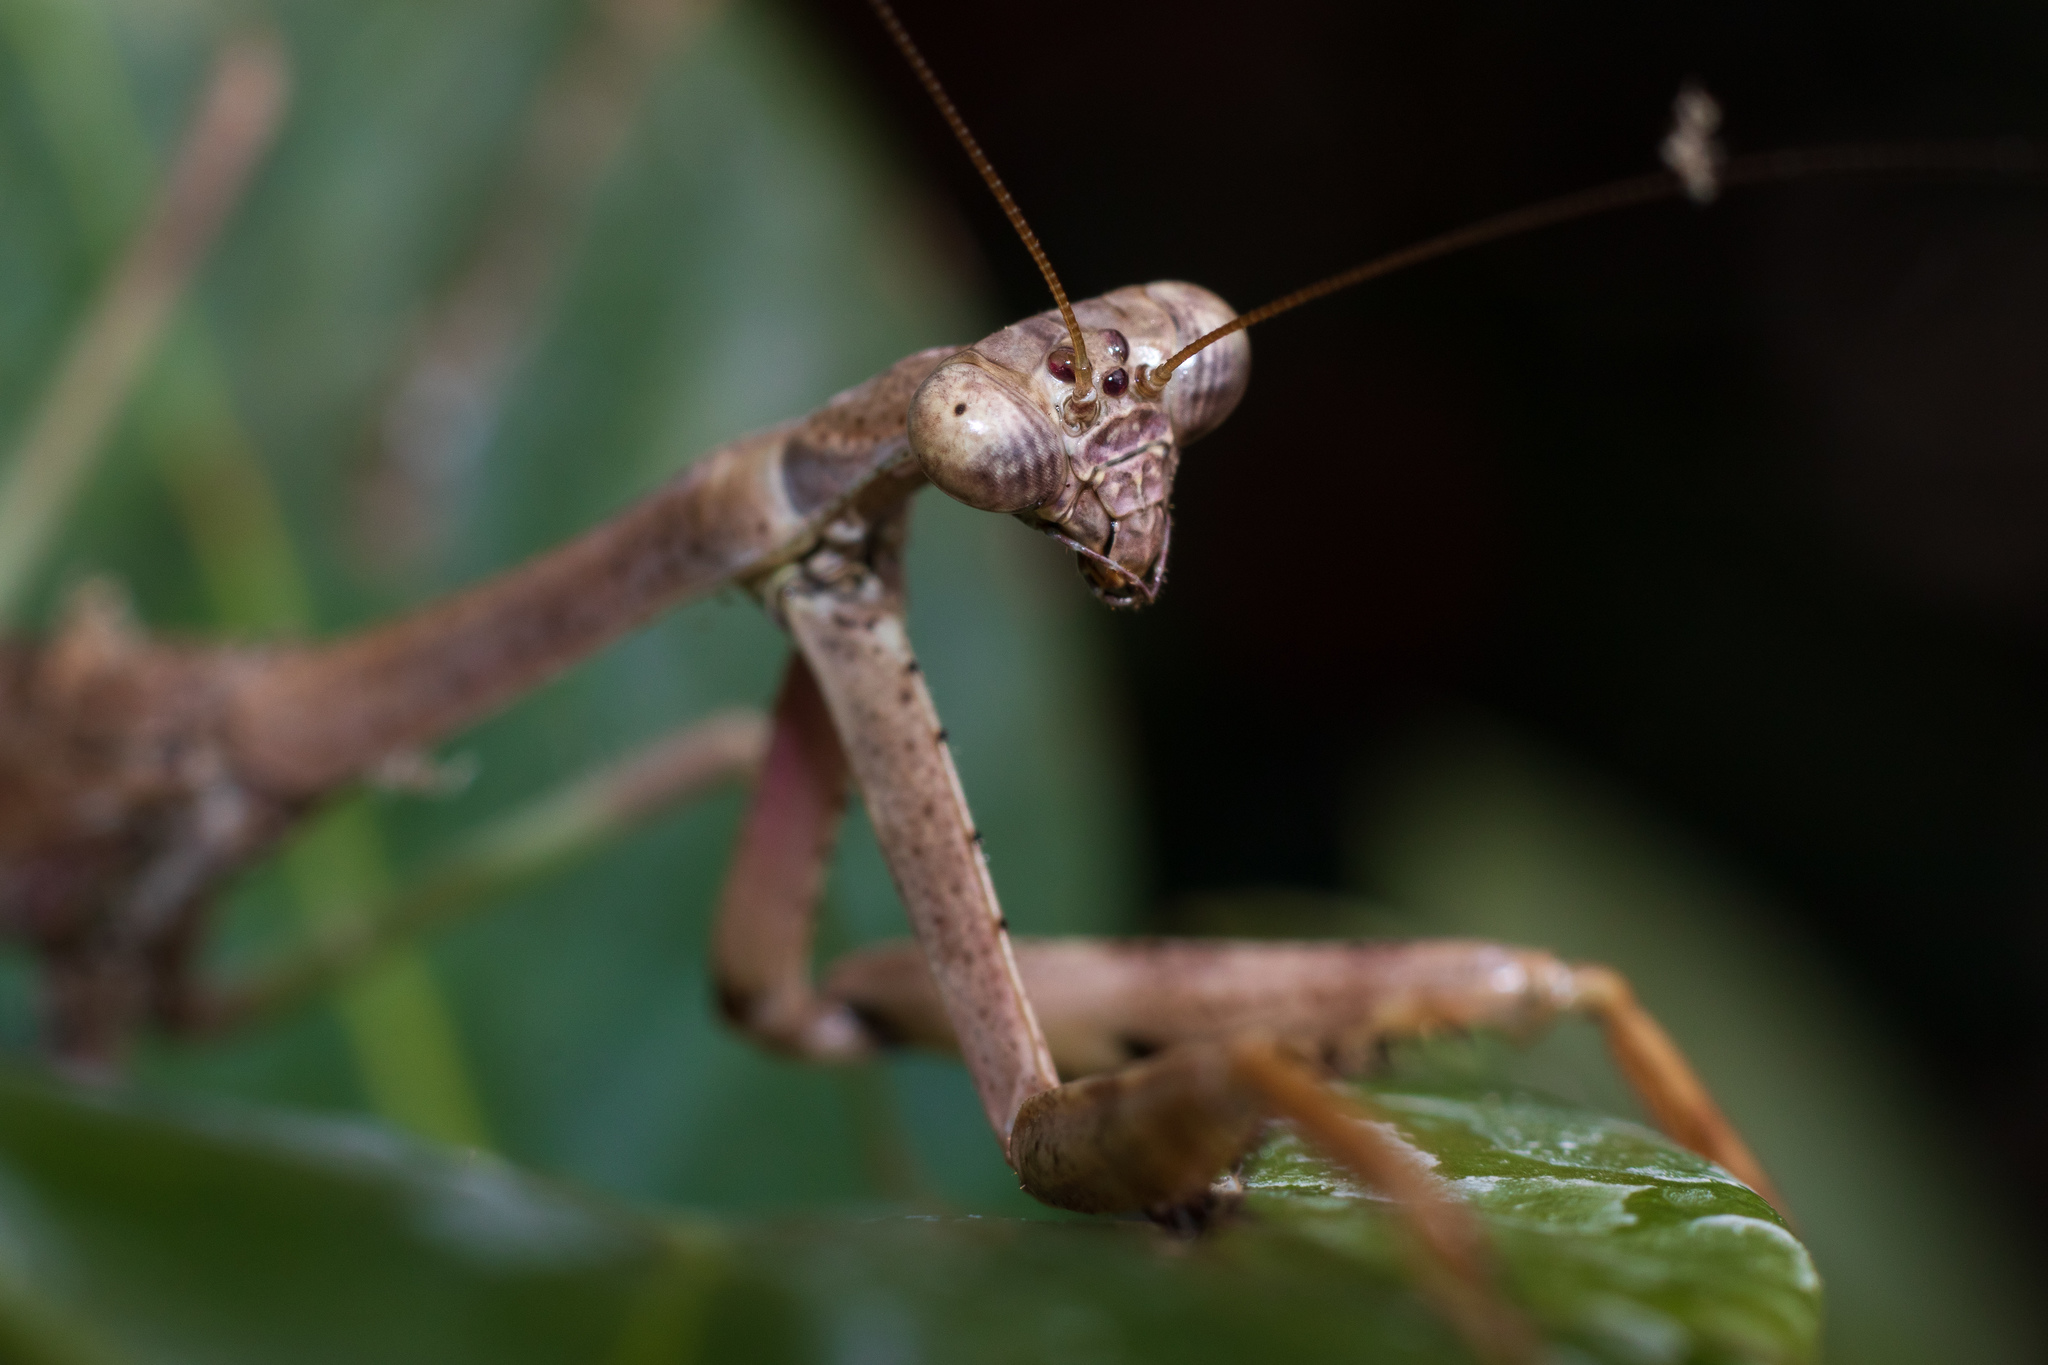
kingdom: Animalia
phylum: Arthropoda
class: Insecta
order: Mantodea
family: Mantidae
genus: Stagmomantis
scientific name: Stagmomantis carolina
